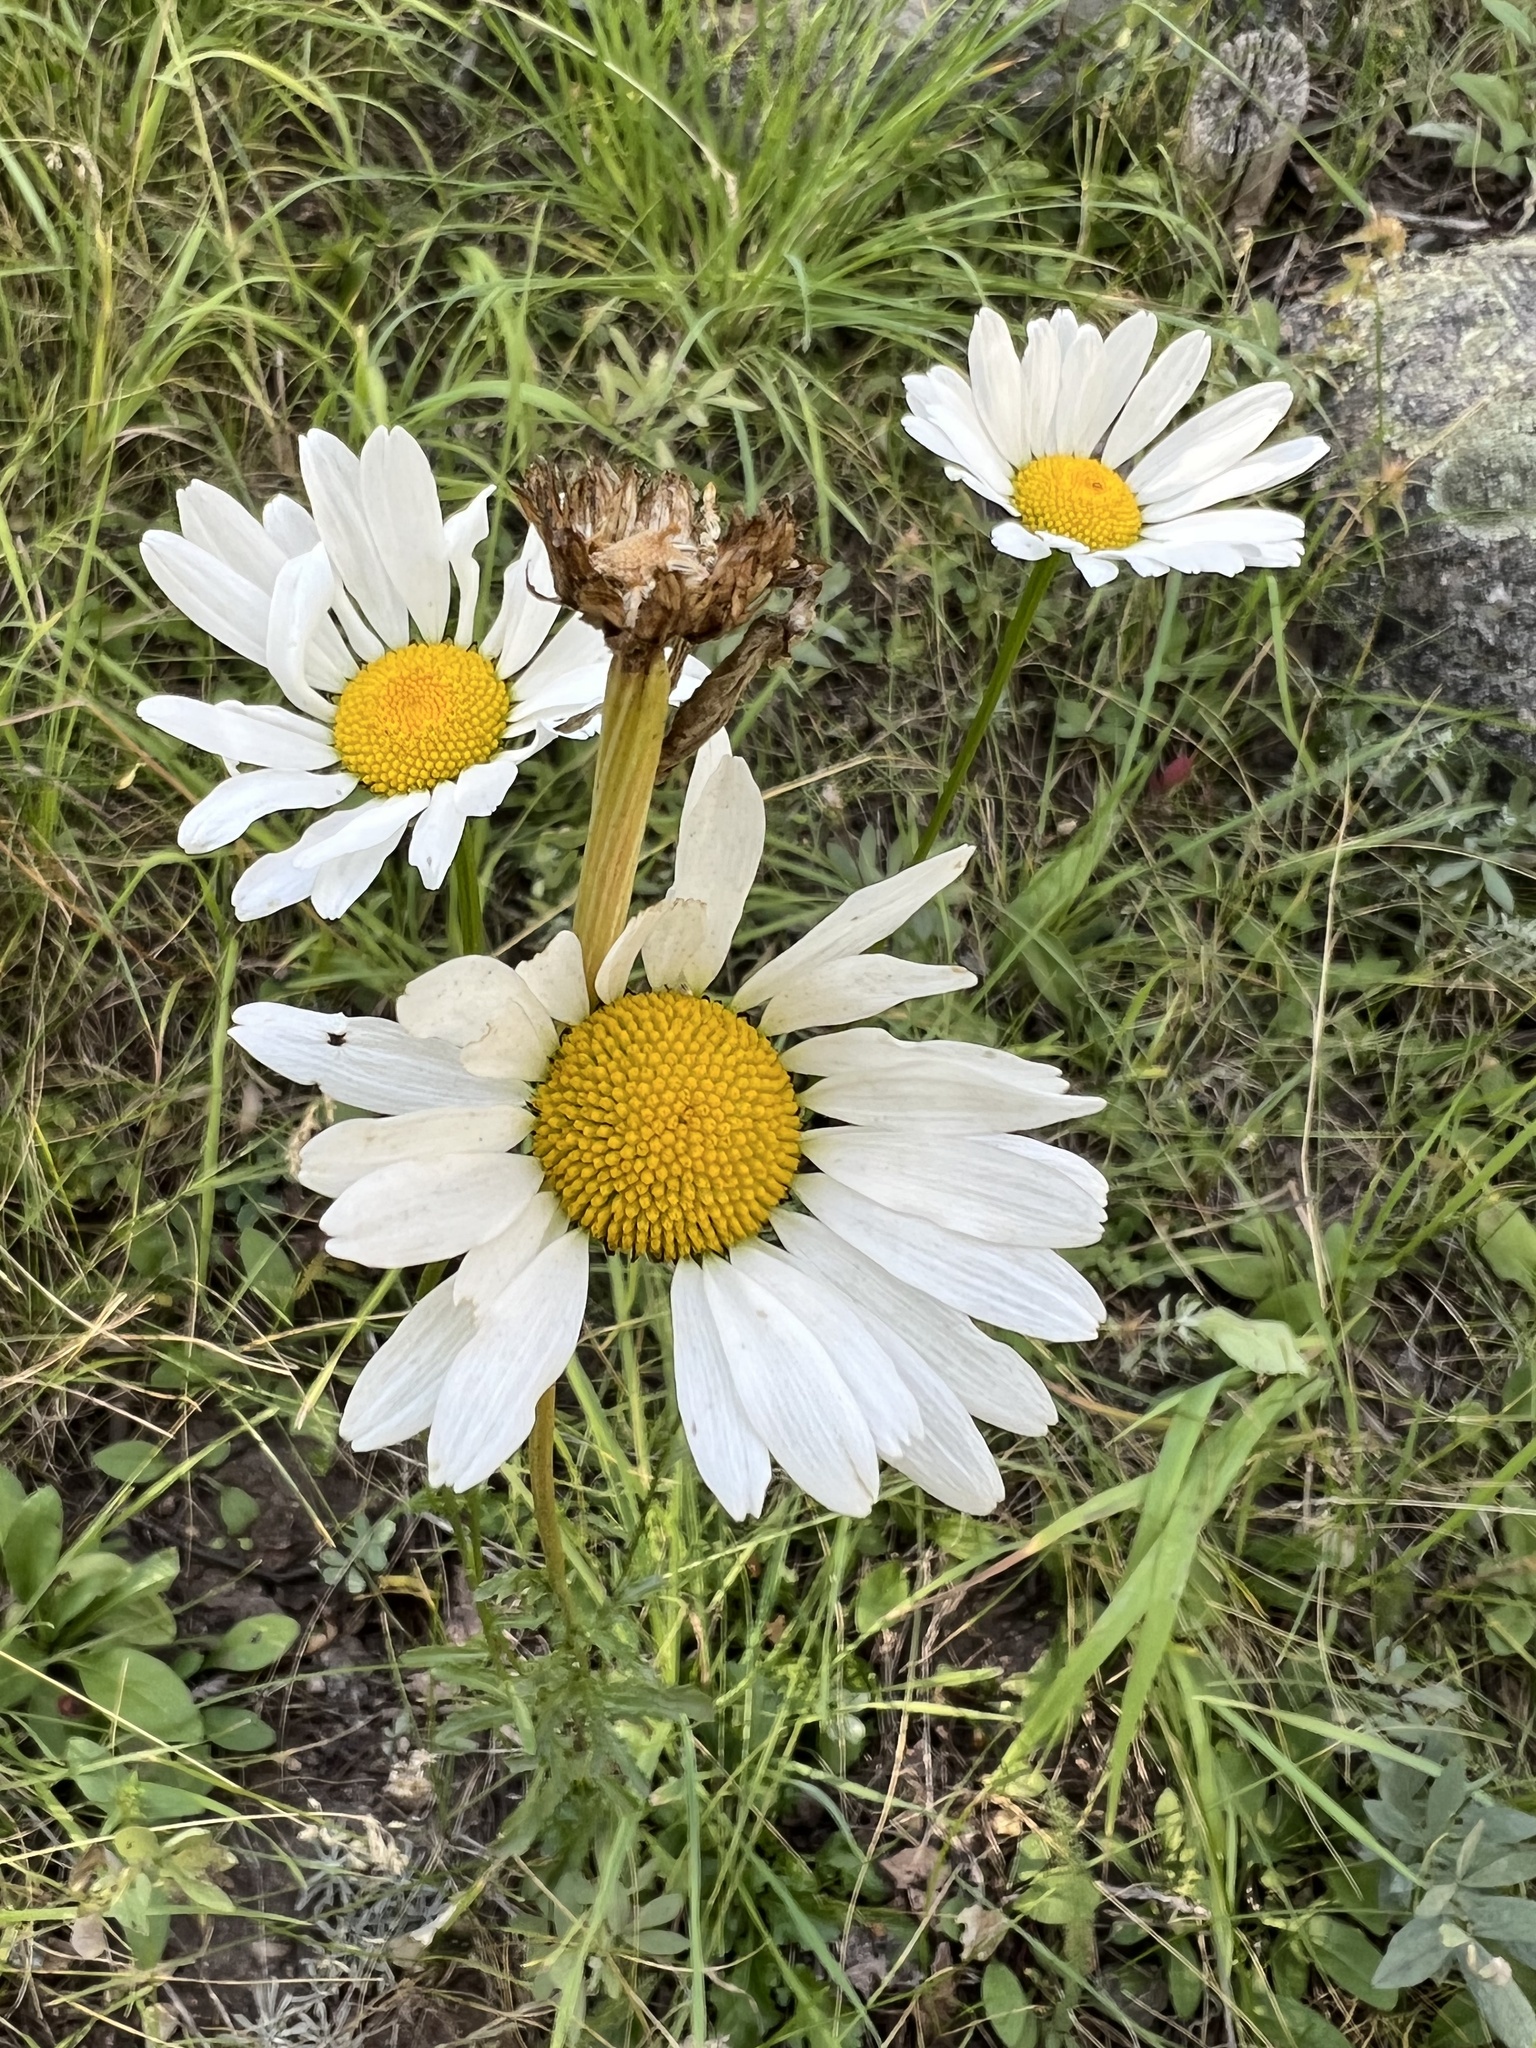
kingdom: Plantae
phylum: Tracheophyta
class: Magnoliopsida
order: Asterales
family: Asteraceae
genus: Leucanthemum
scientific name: Leucanthemum vulgare
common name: Oxeye daisy
